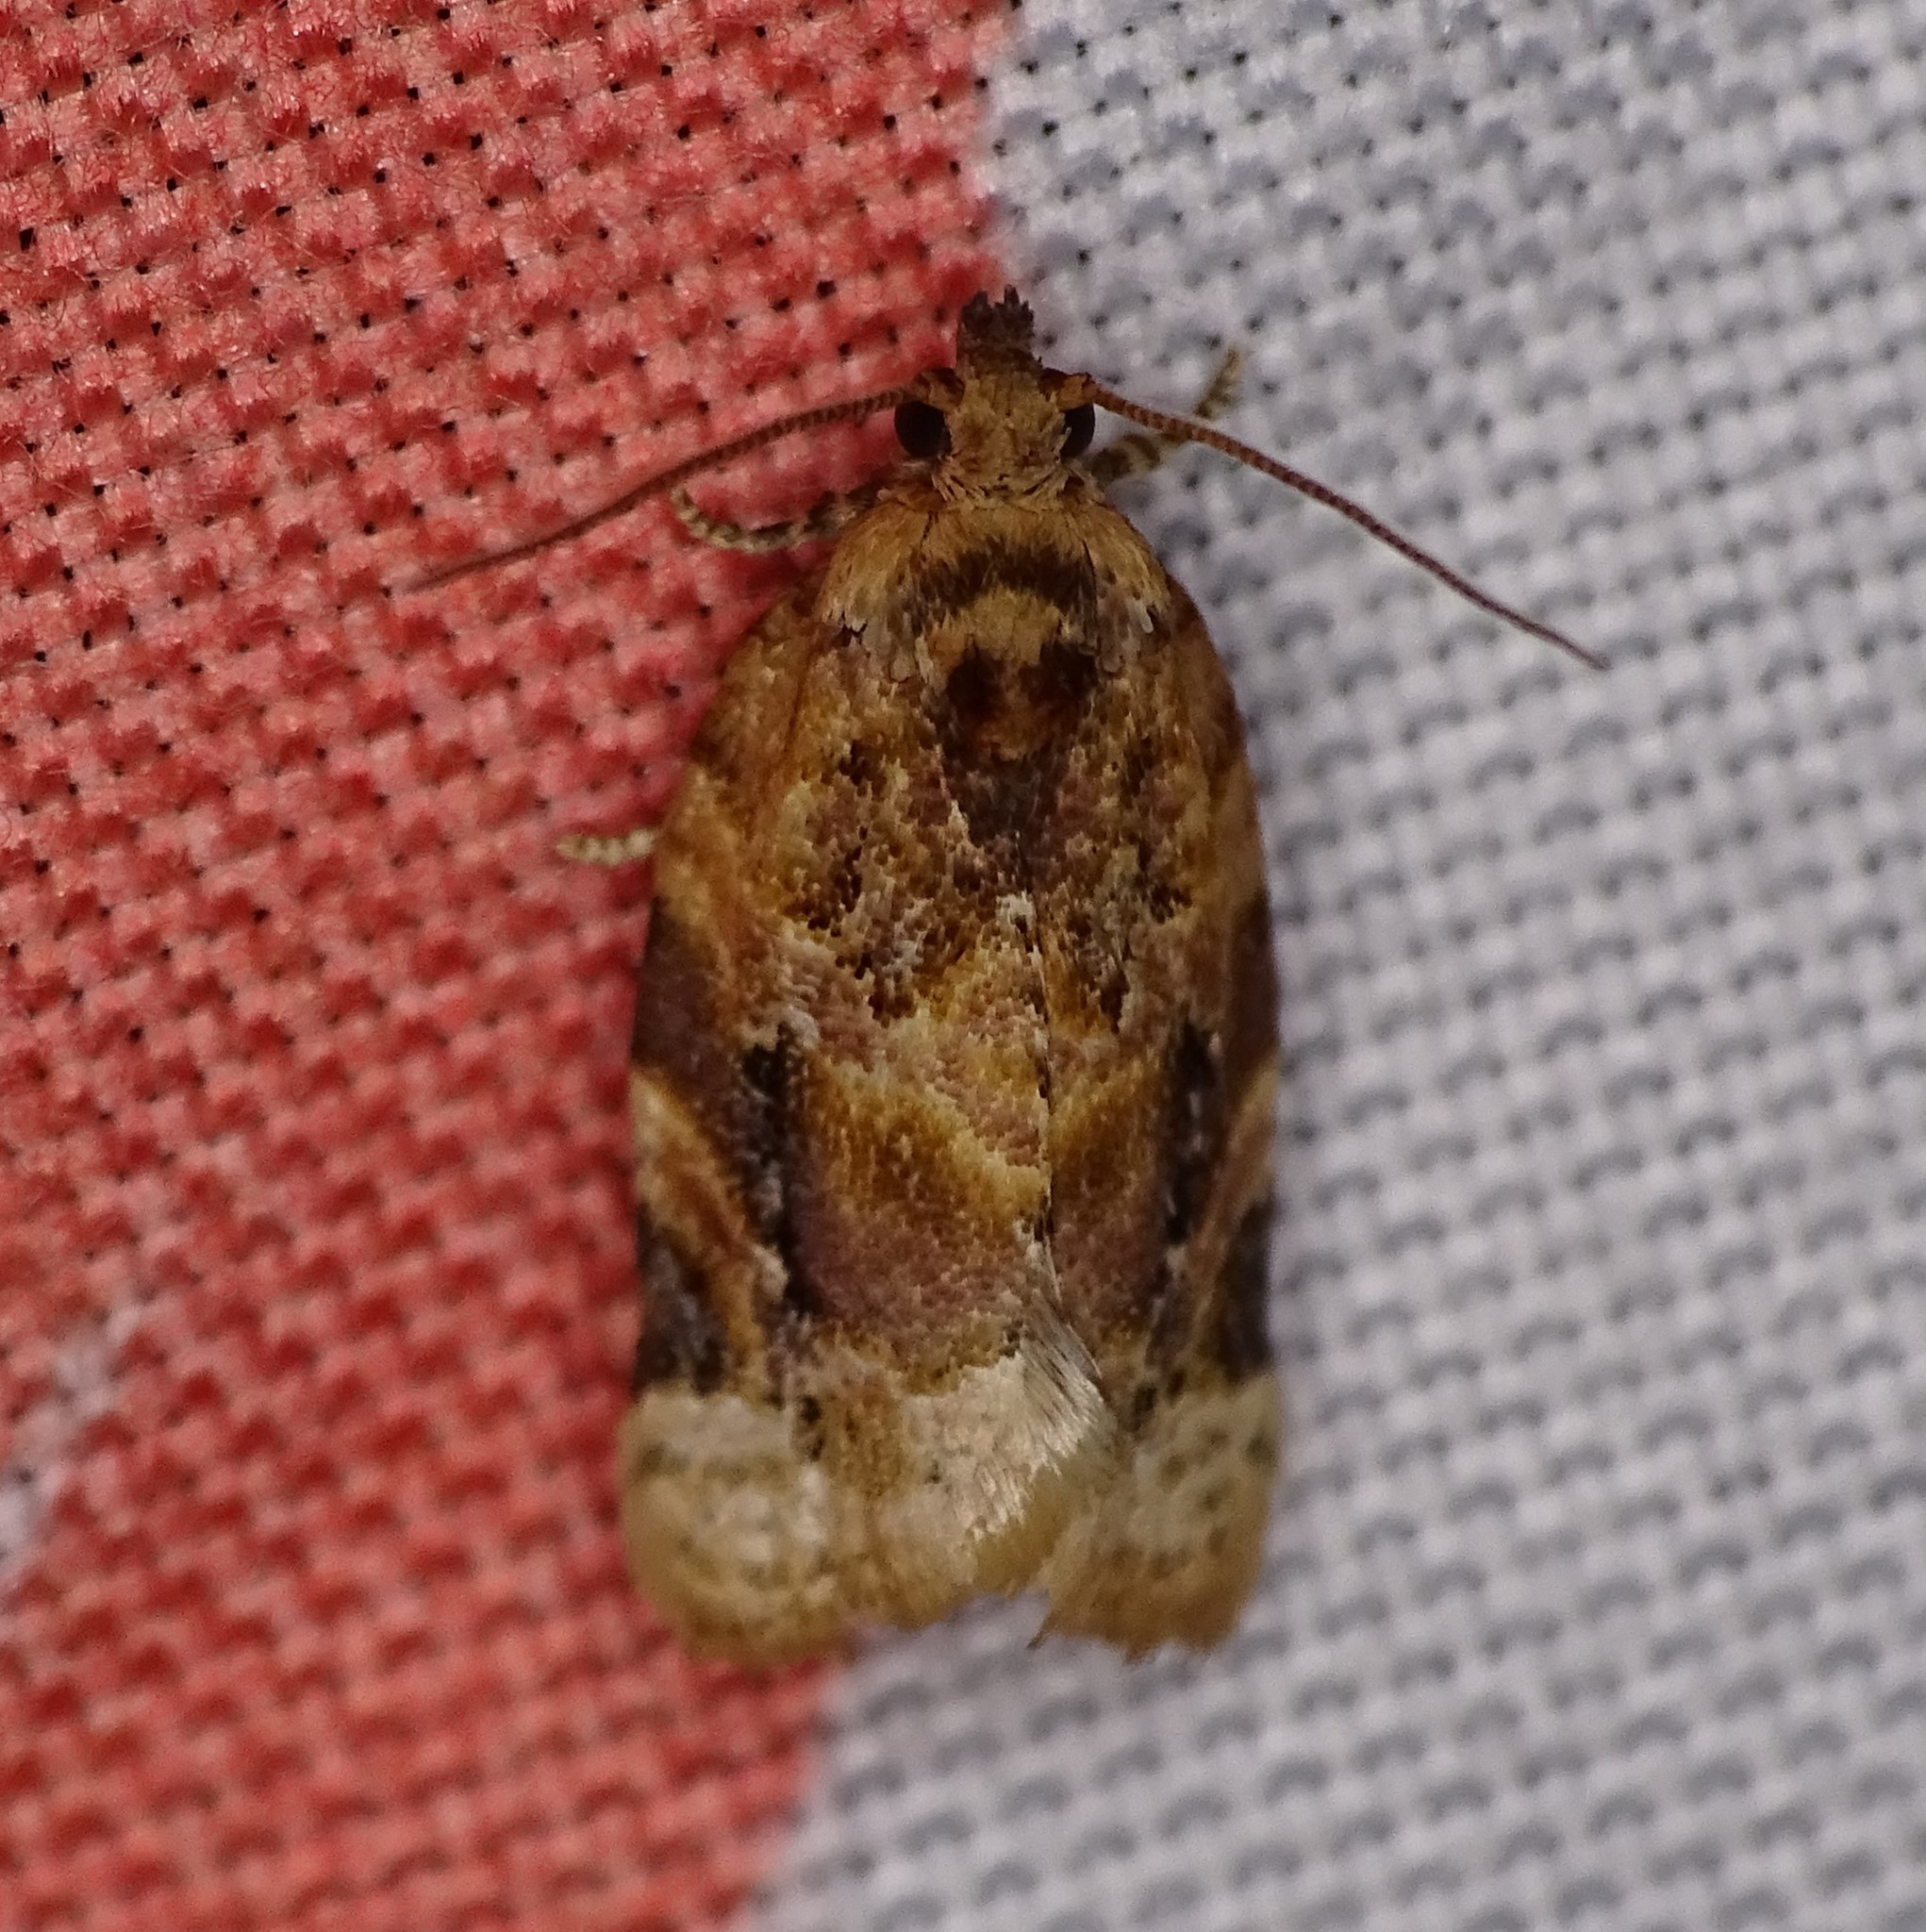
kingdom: Animalia
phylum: Arthropoda
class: Insecta
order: Lepidoptera
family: Tortricidae
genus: Argyrotaenia
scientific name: Argyrotaenia velutinana
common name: Red-banded leafroller moth
